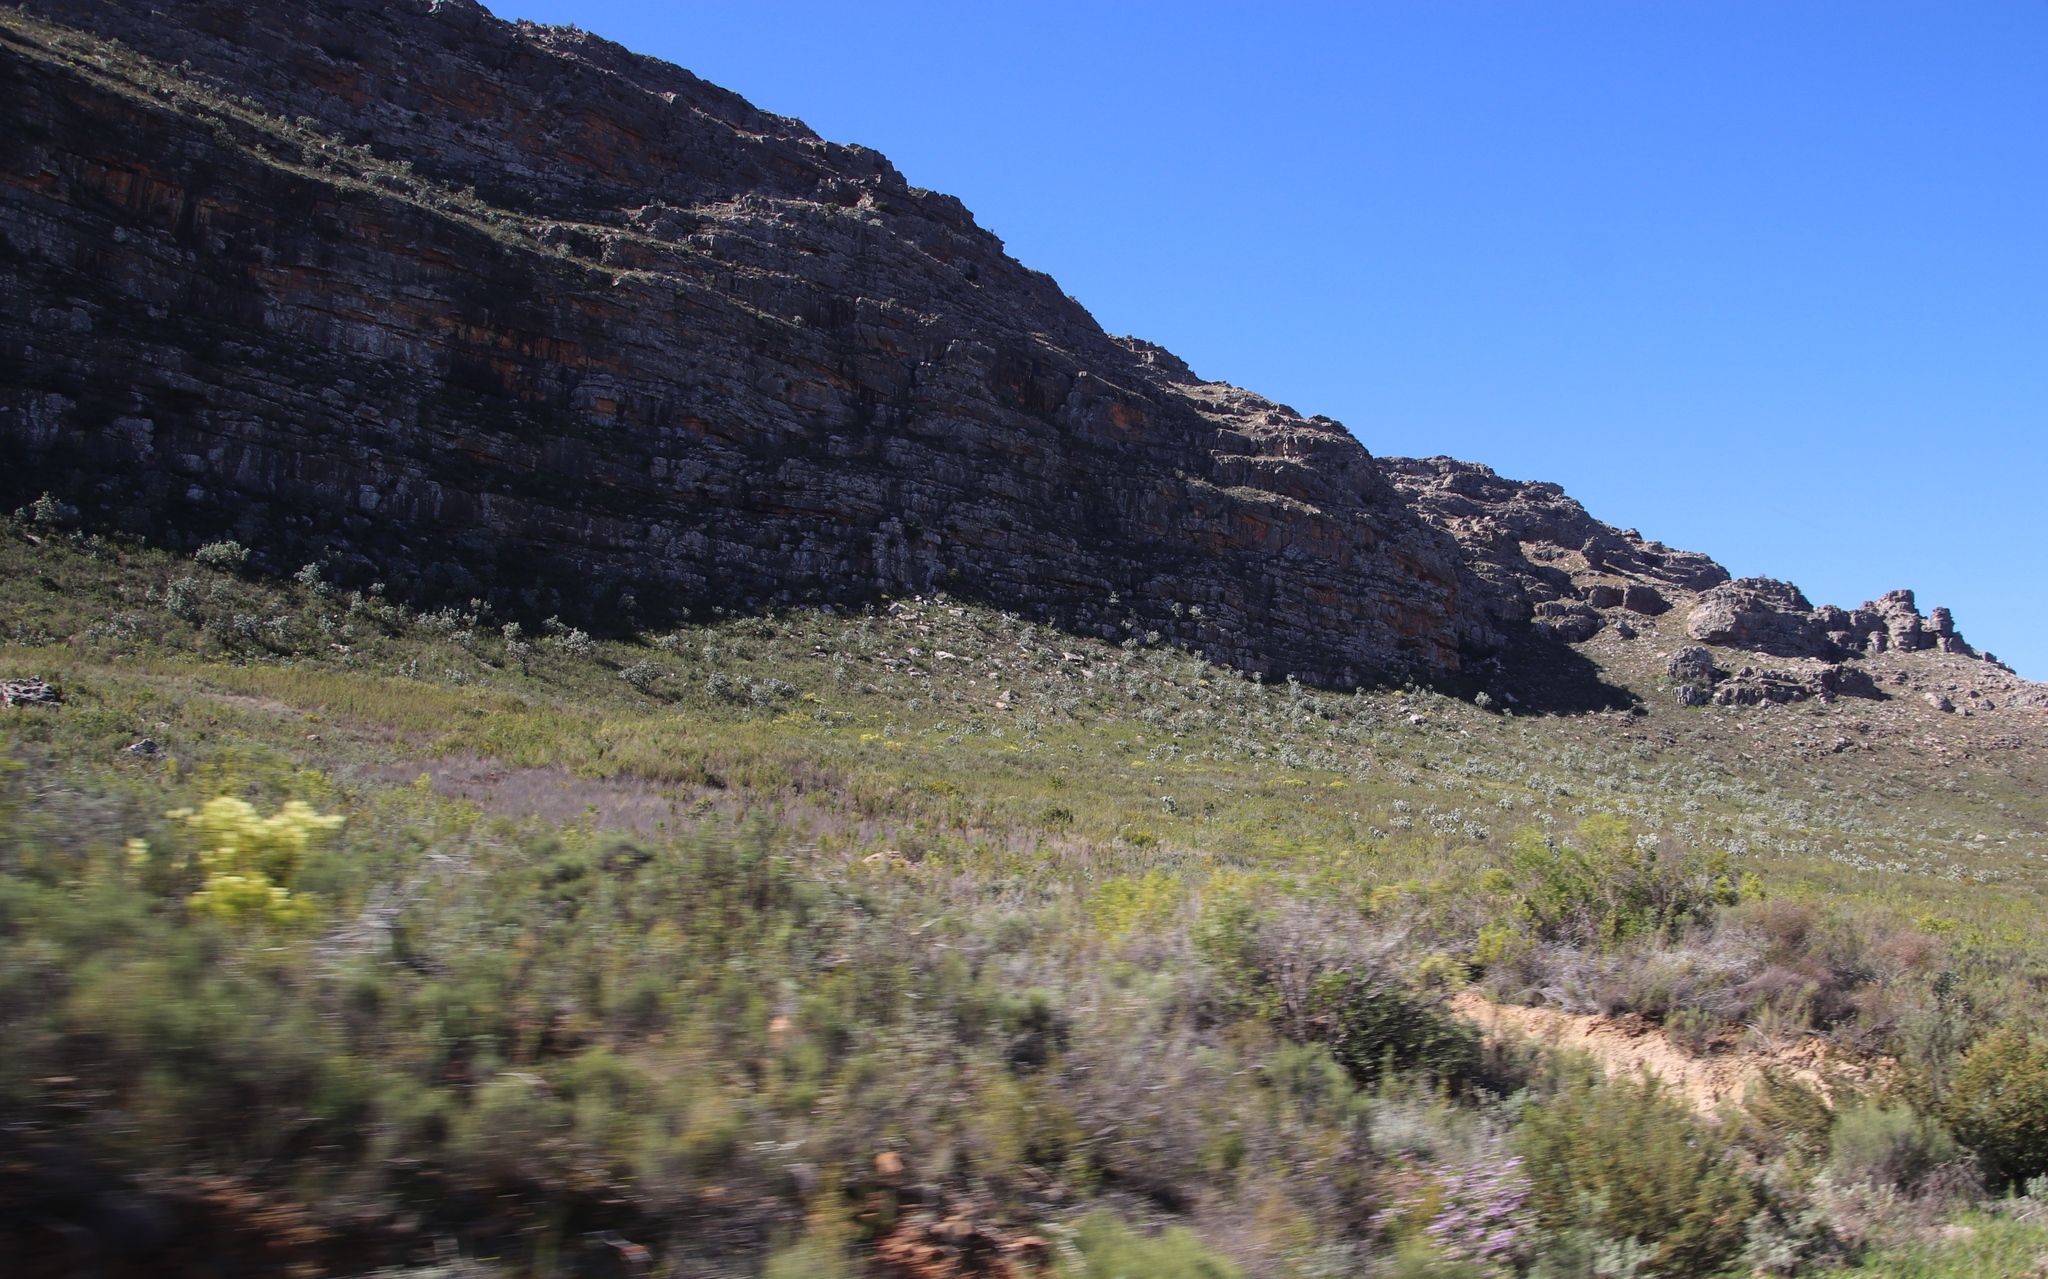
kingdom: Plantae
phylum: Tracheophyta
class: Magnoliopsida
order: Proteales
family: Proteaceae
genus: Protea
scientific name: Protea nitida
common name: Tree protea
